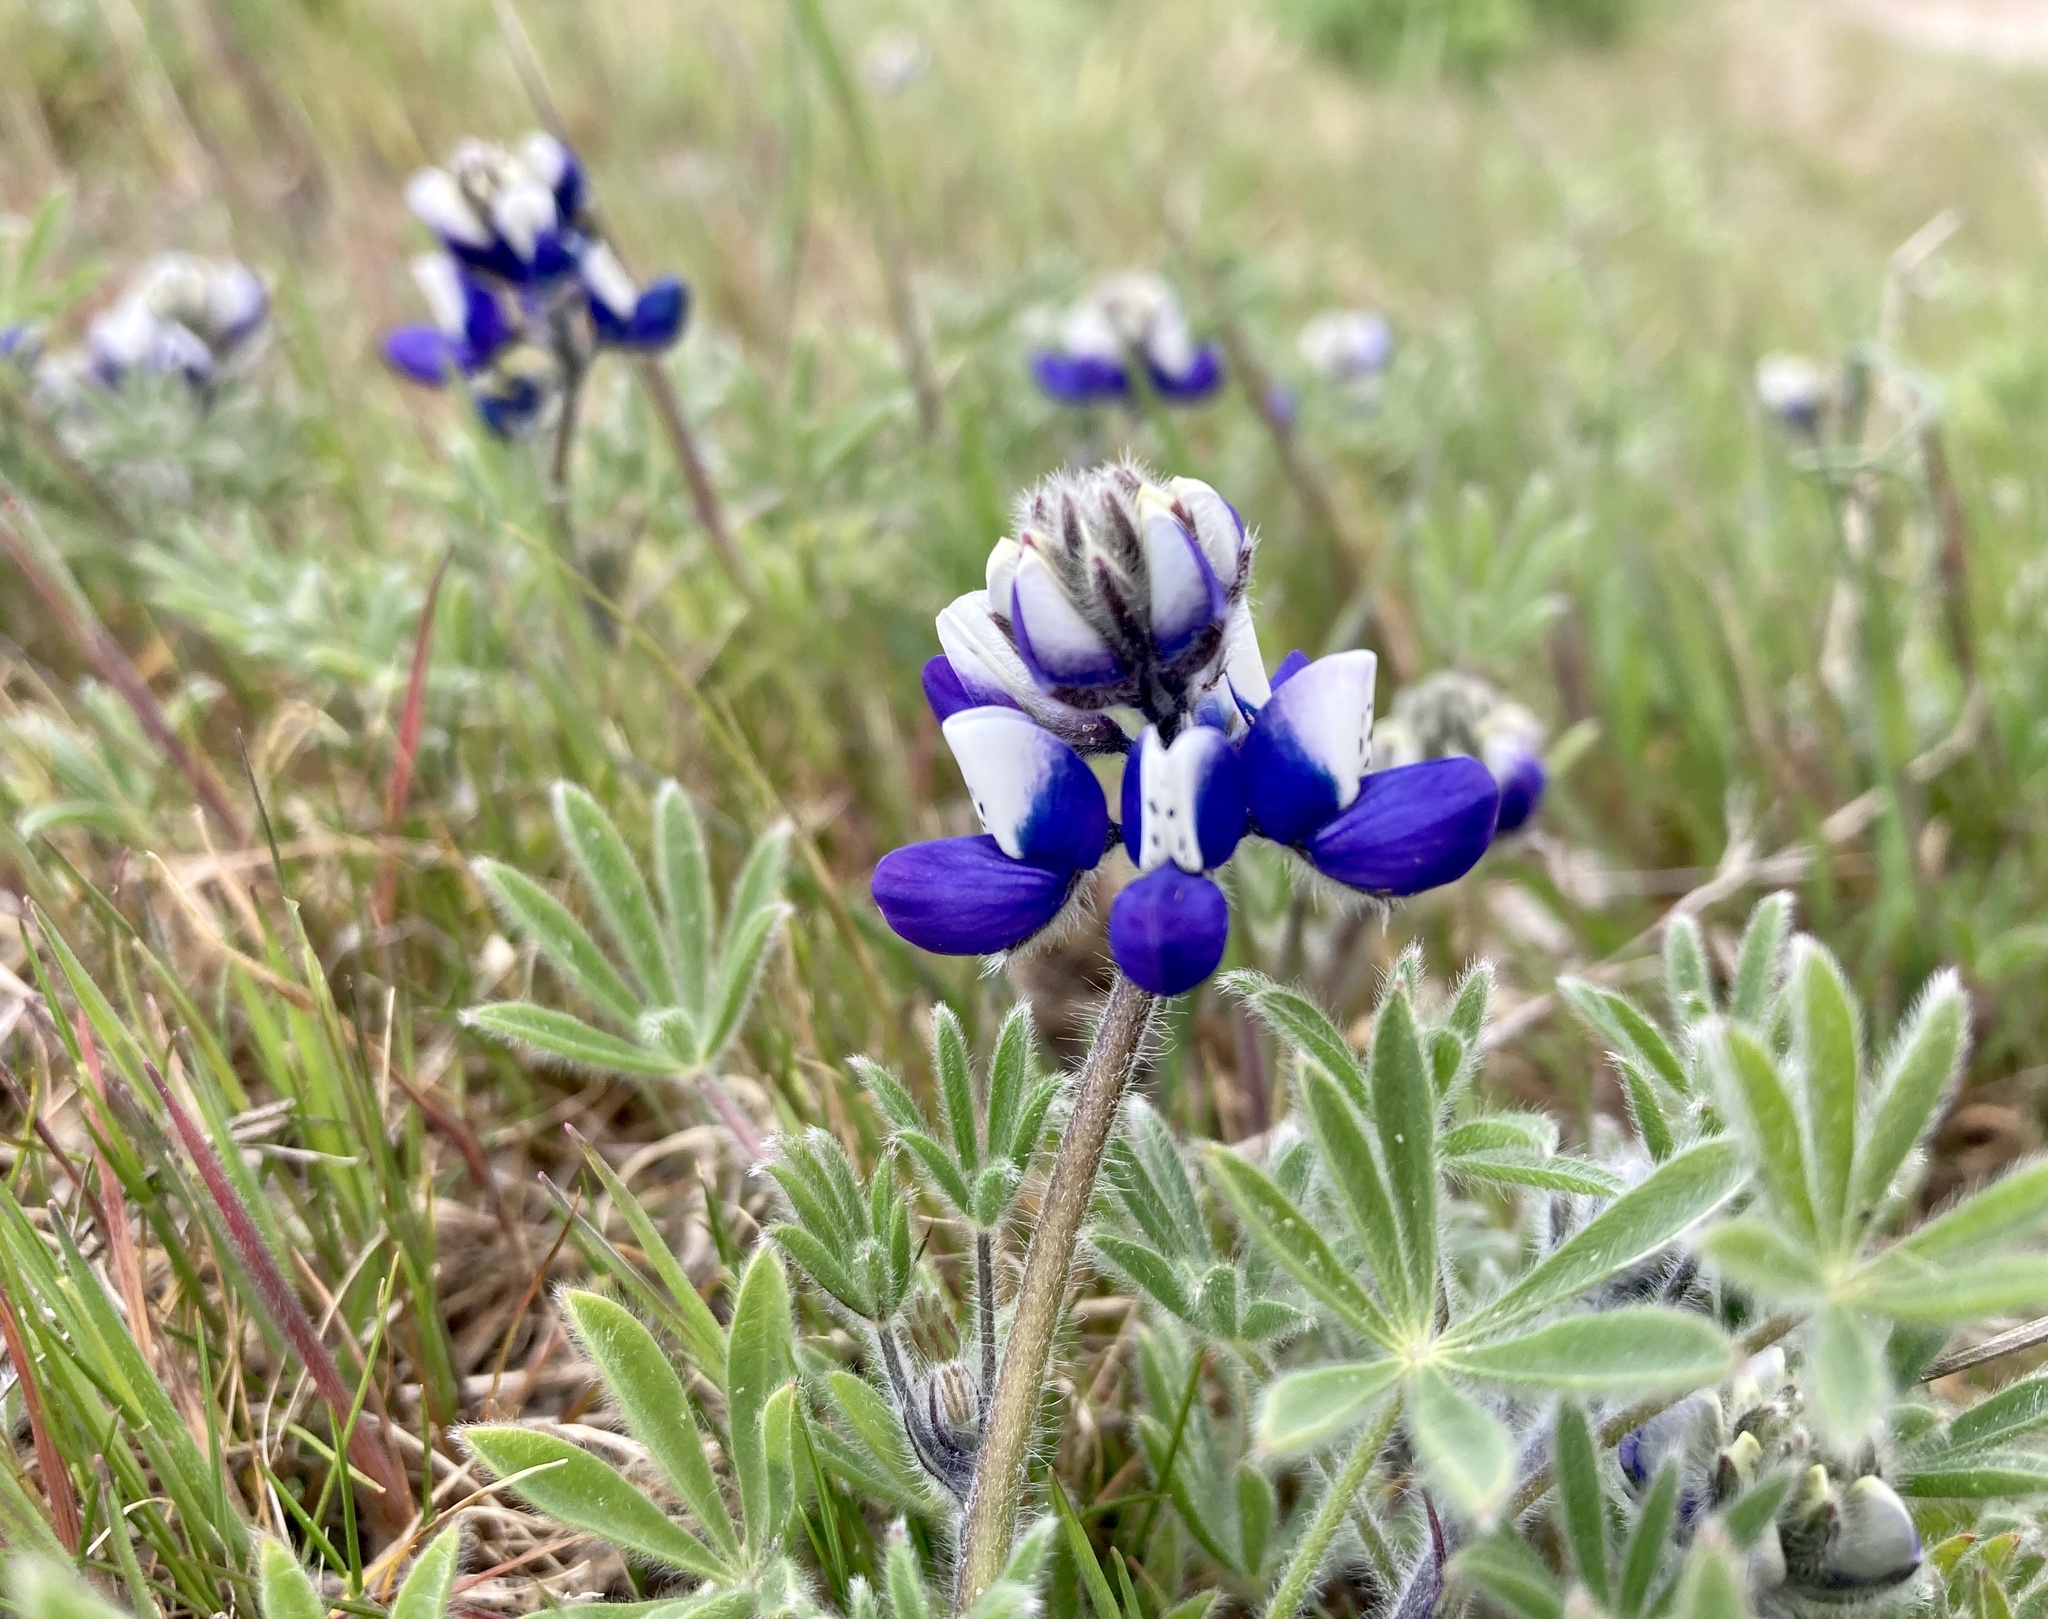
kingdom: Plantae
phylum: Tracheophyta
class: Magnoliopsida
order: Fabales
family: Fabaceae
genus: Lupinus
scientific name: Lupinus bicolor
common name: Miniature lupine
